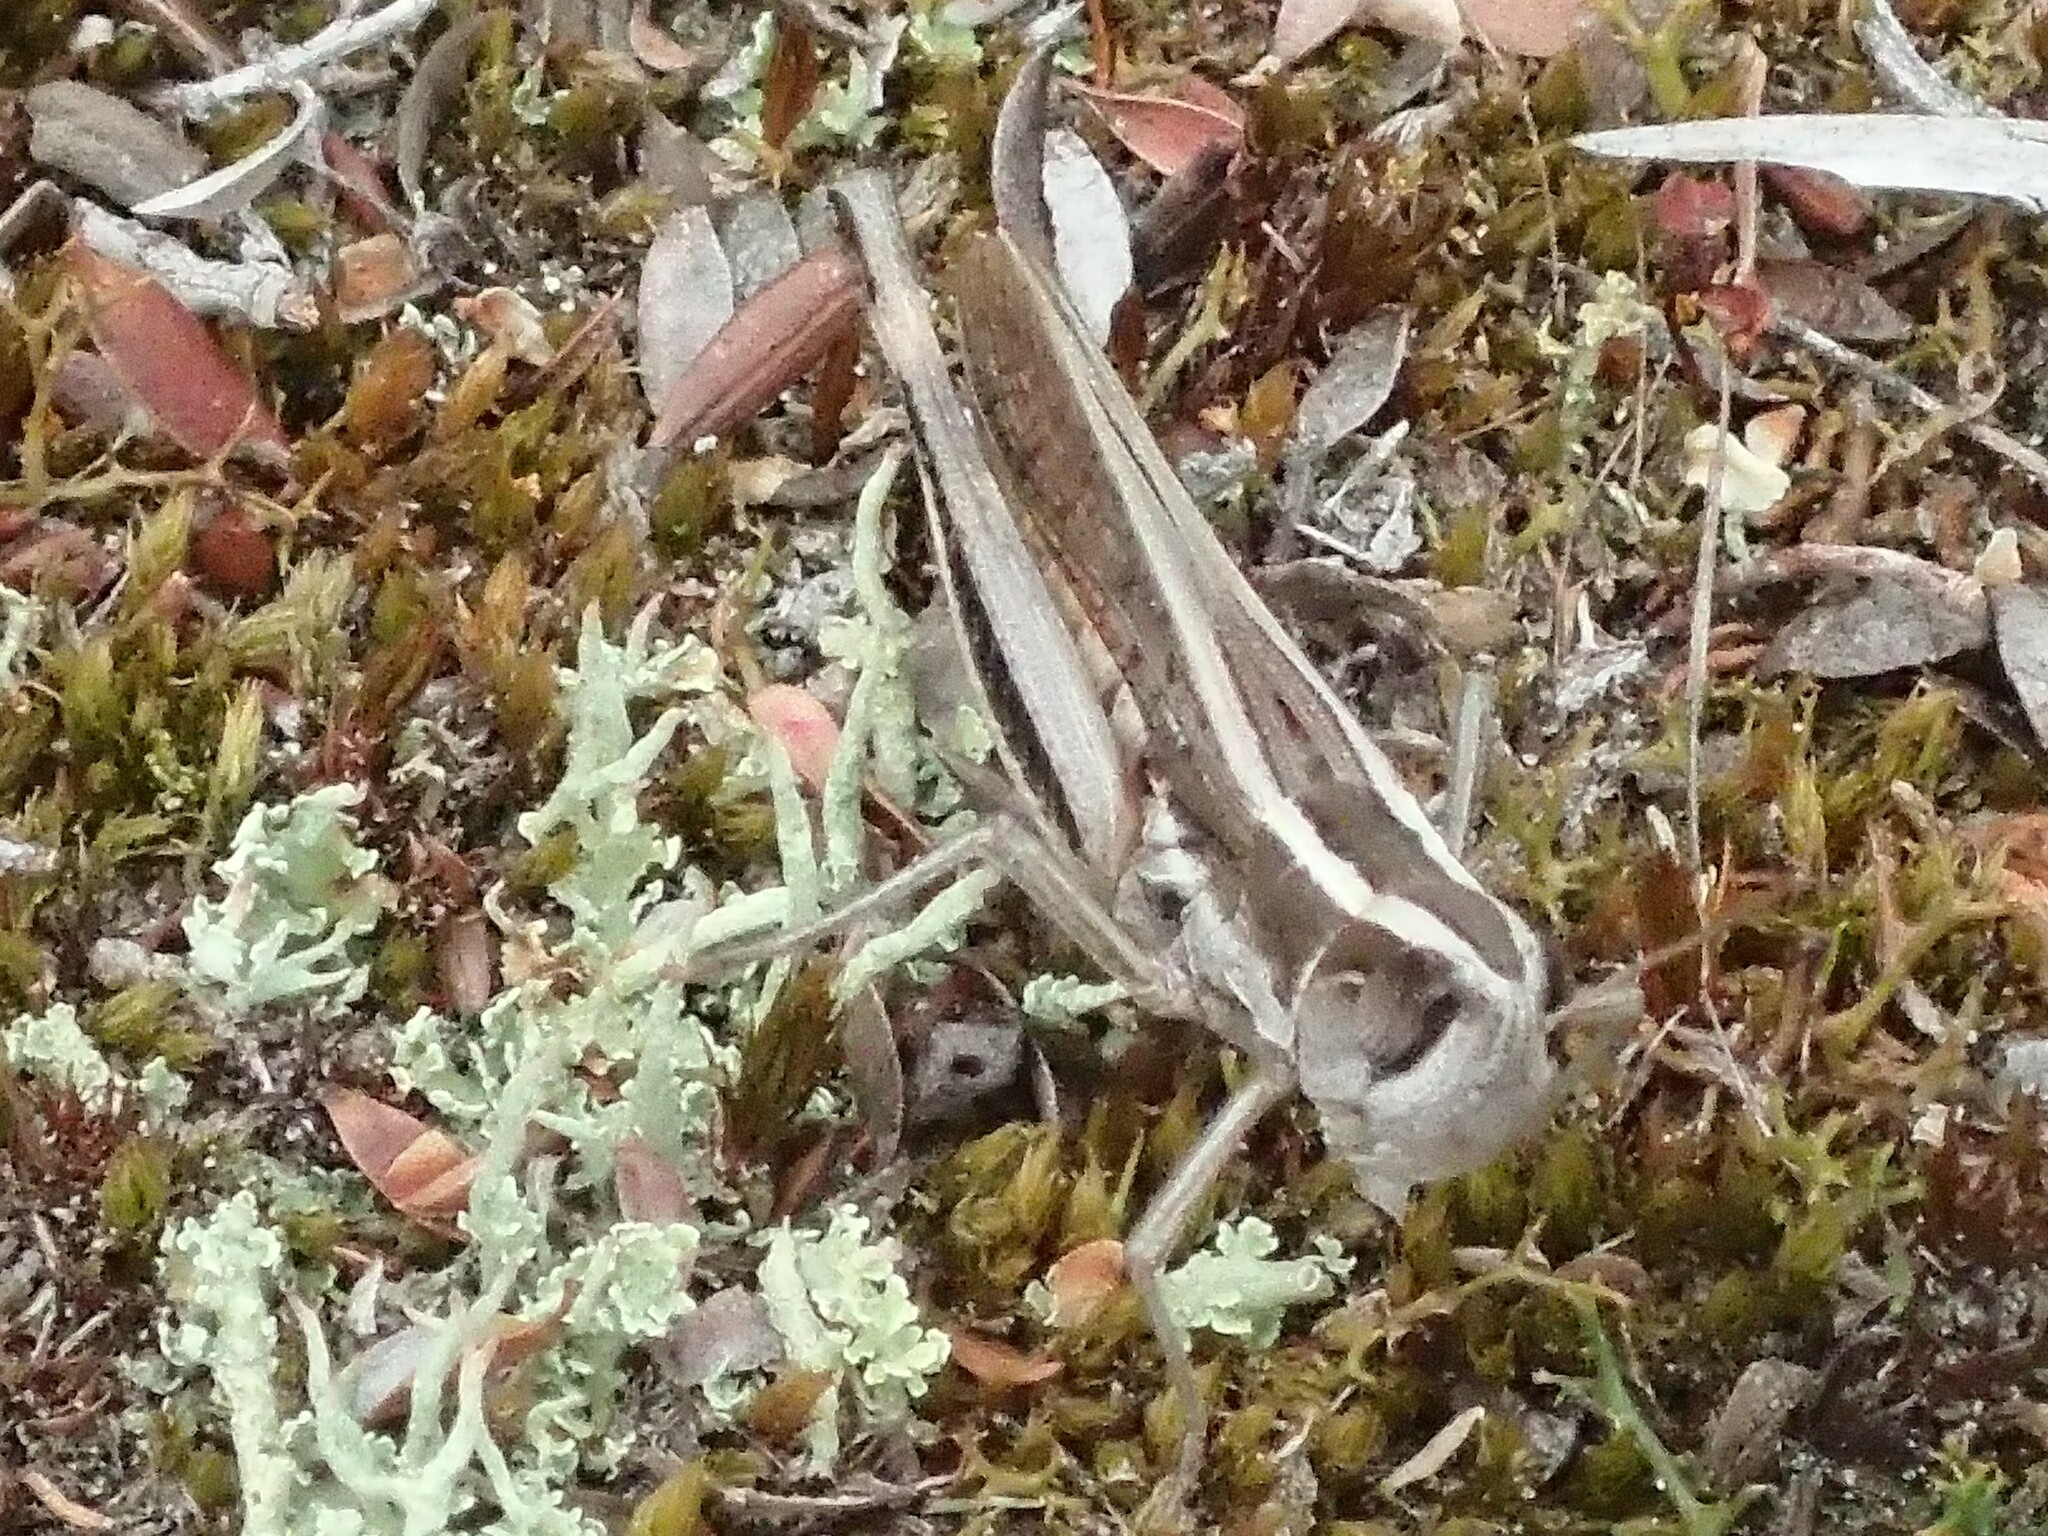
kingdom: Animalia
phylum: Arthropoda
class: Insecta
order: Orthoptera
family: Acrididae
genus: Macrotona
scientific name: Macrotona australis
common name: Common macrotona
